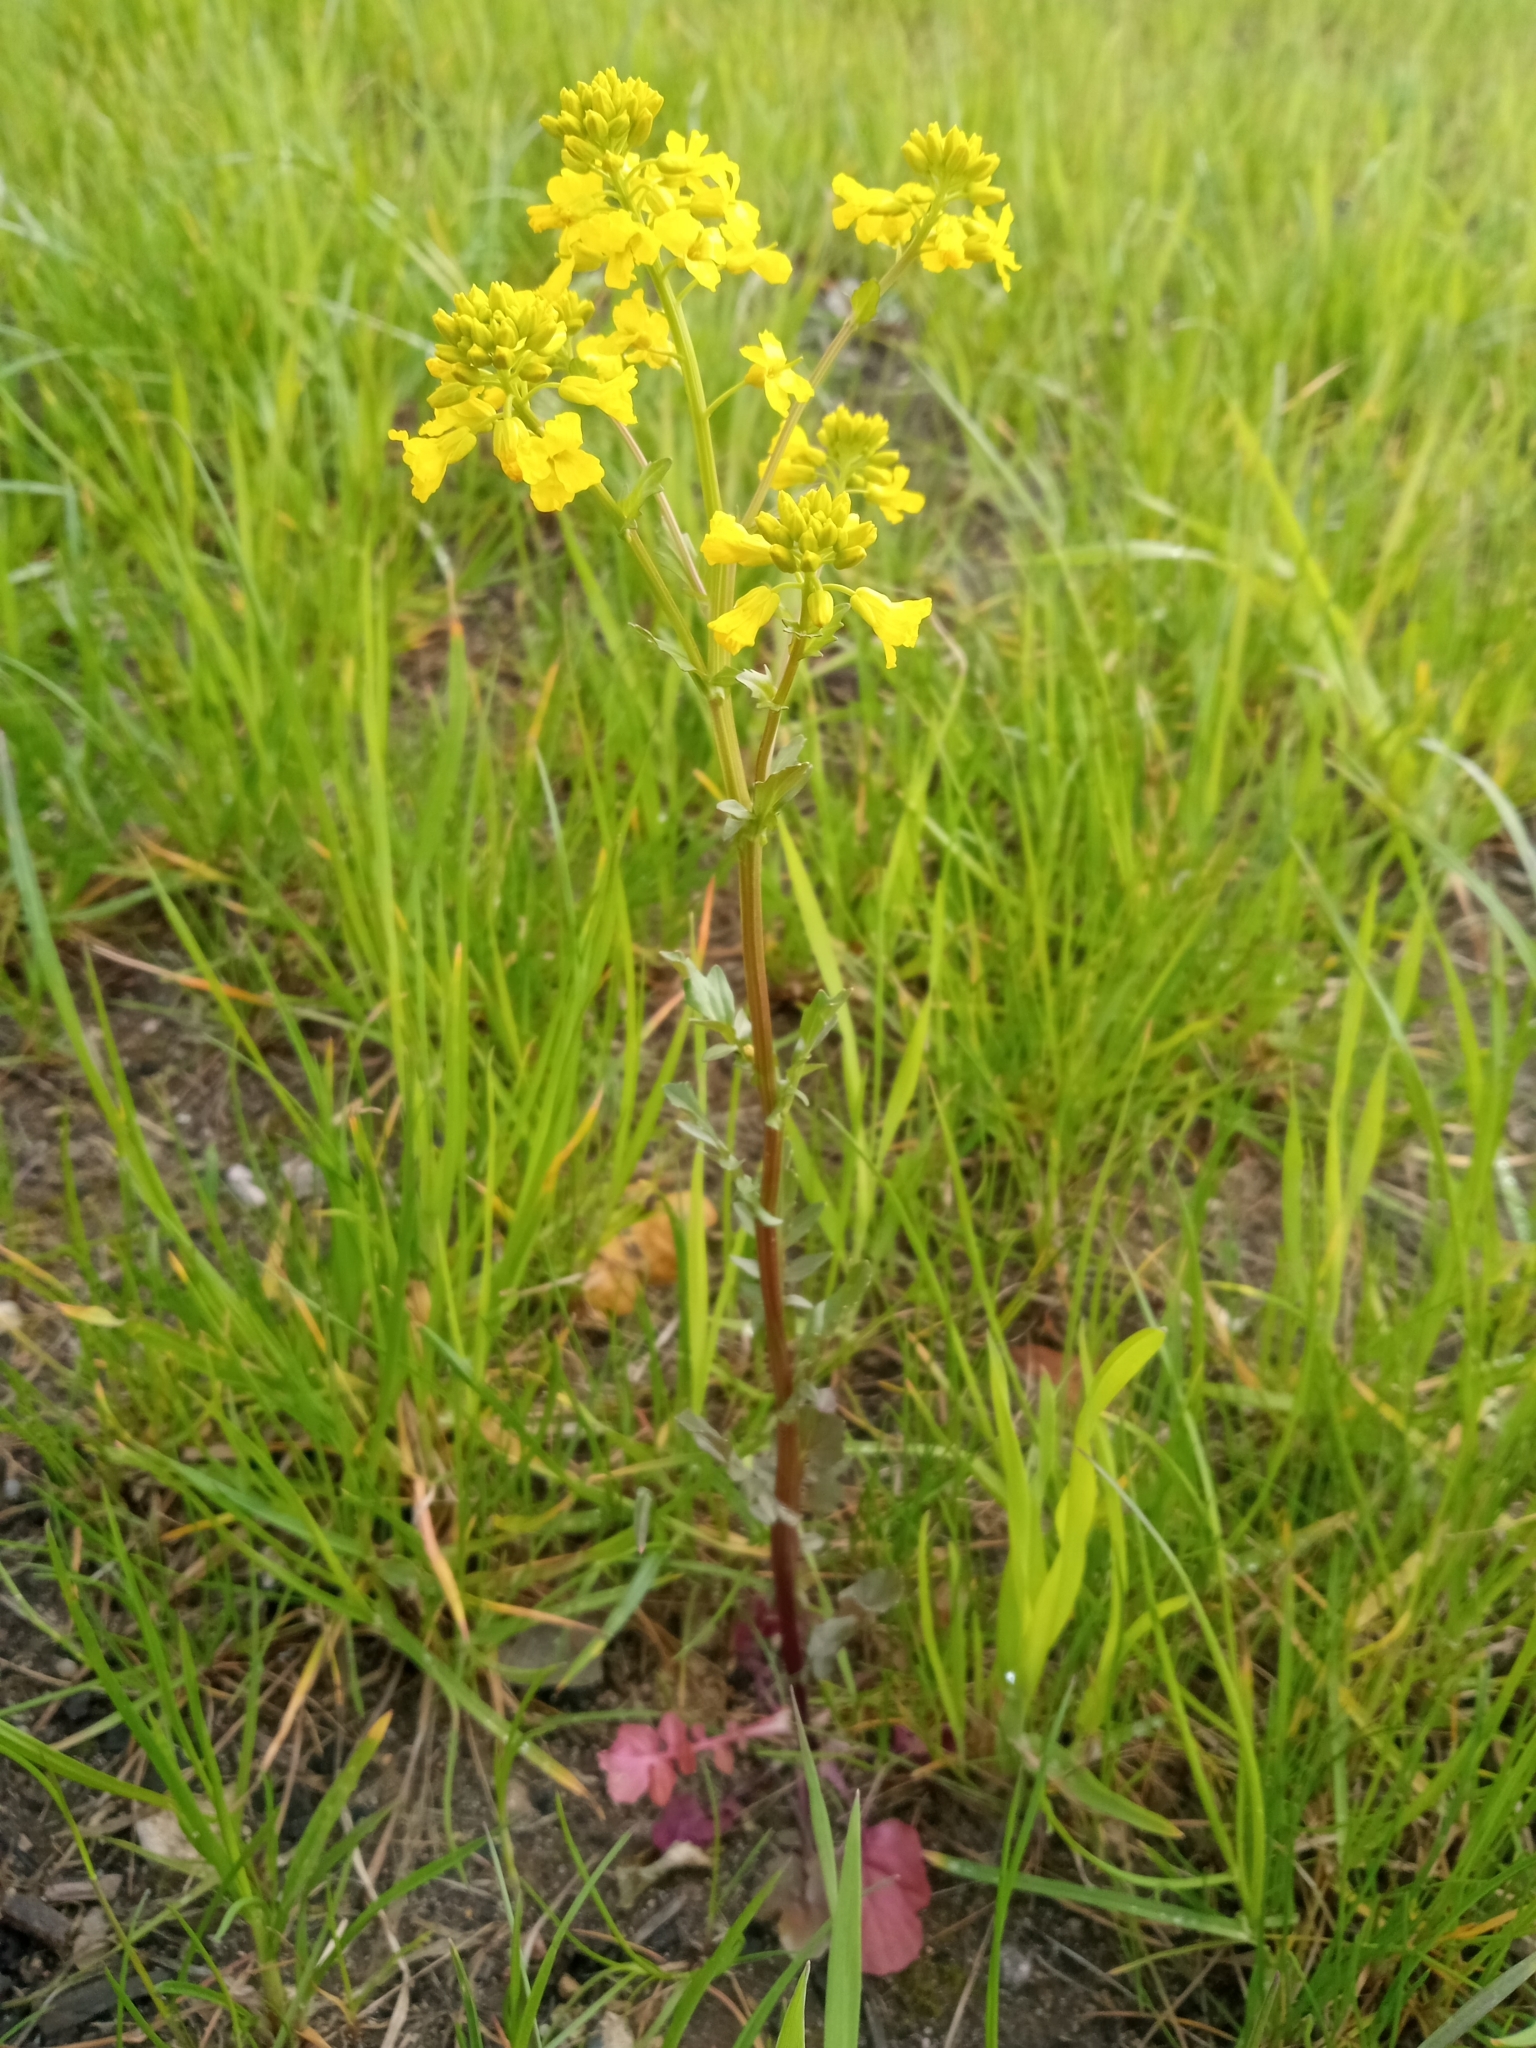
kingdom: Plantae
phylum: Tracheophyta
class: Magnoliopsida
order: Brassicales
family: Brassicaceae
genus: Barbarea
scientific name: Barbarea vulgaris
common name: Cressy-greens
